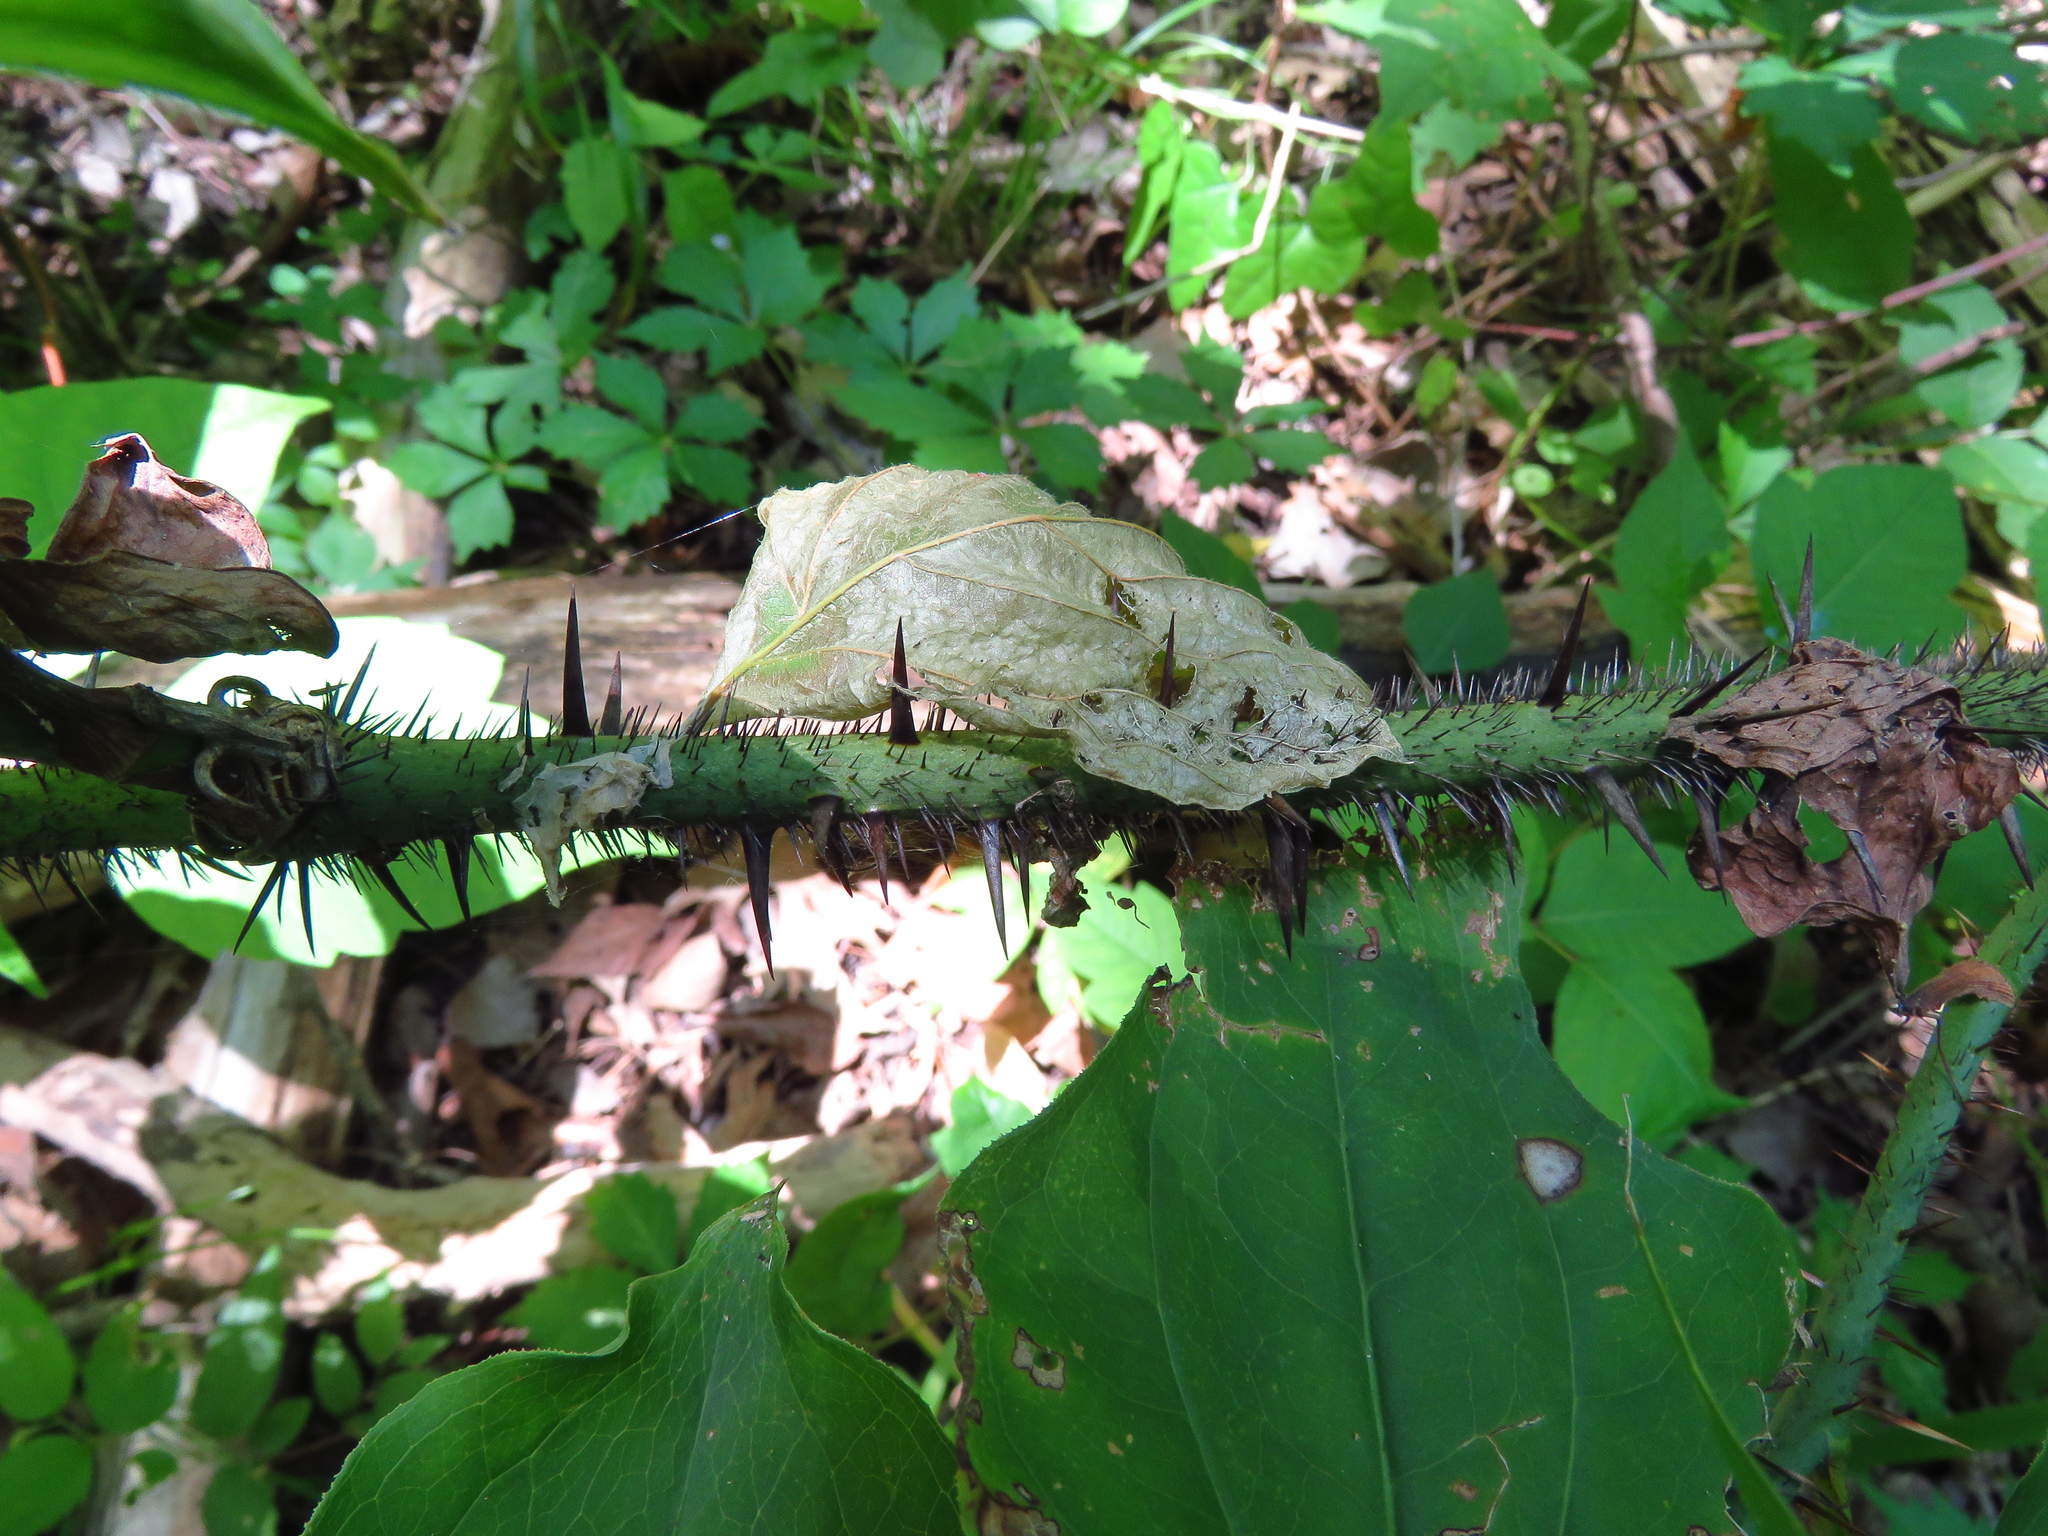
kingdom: Plantae
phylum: Tracheophyta
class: Liliopsida
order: Liliales
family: Smilacaceae
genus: Smilax
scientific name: Smilax tamnoides
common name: Hellfetter
